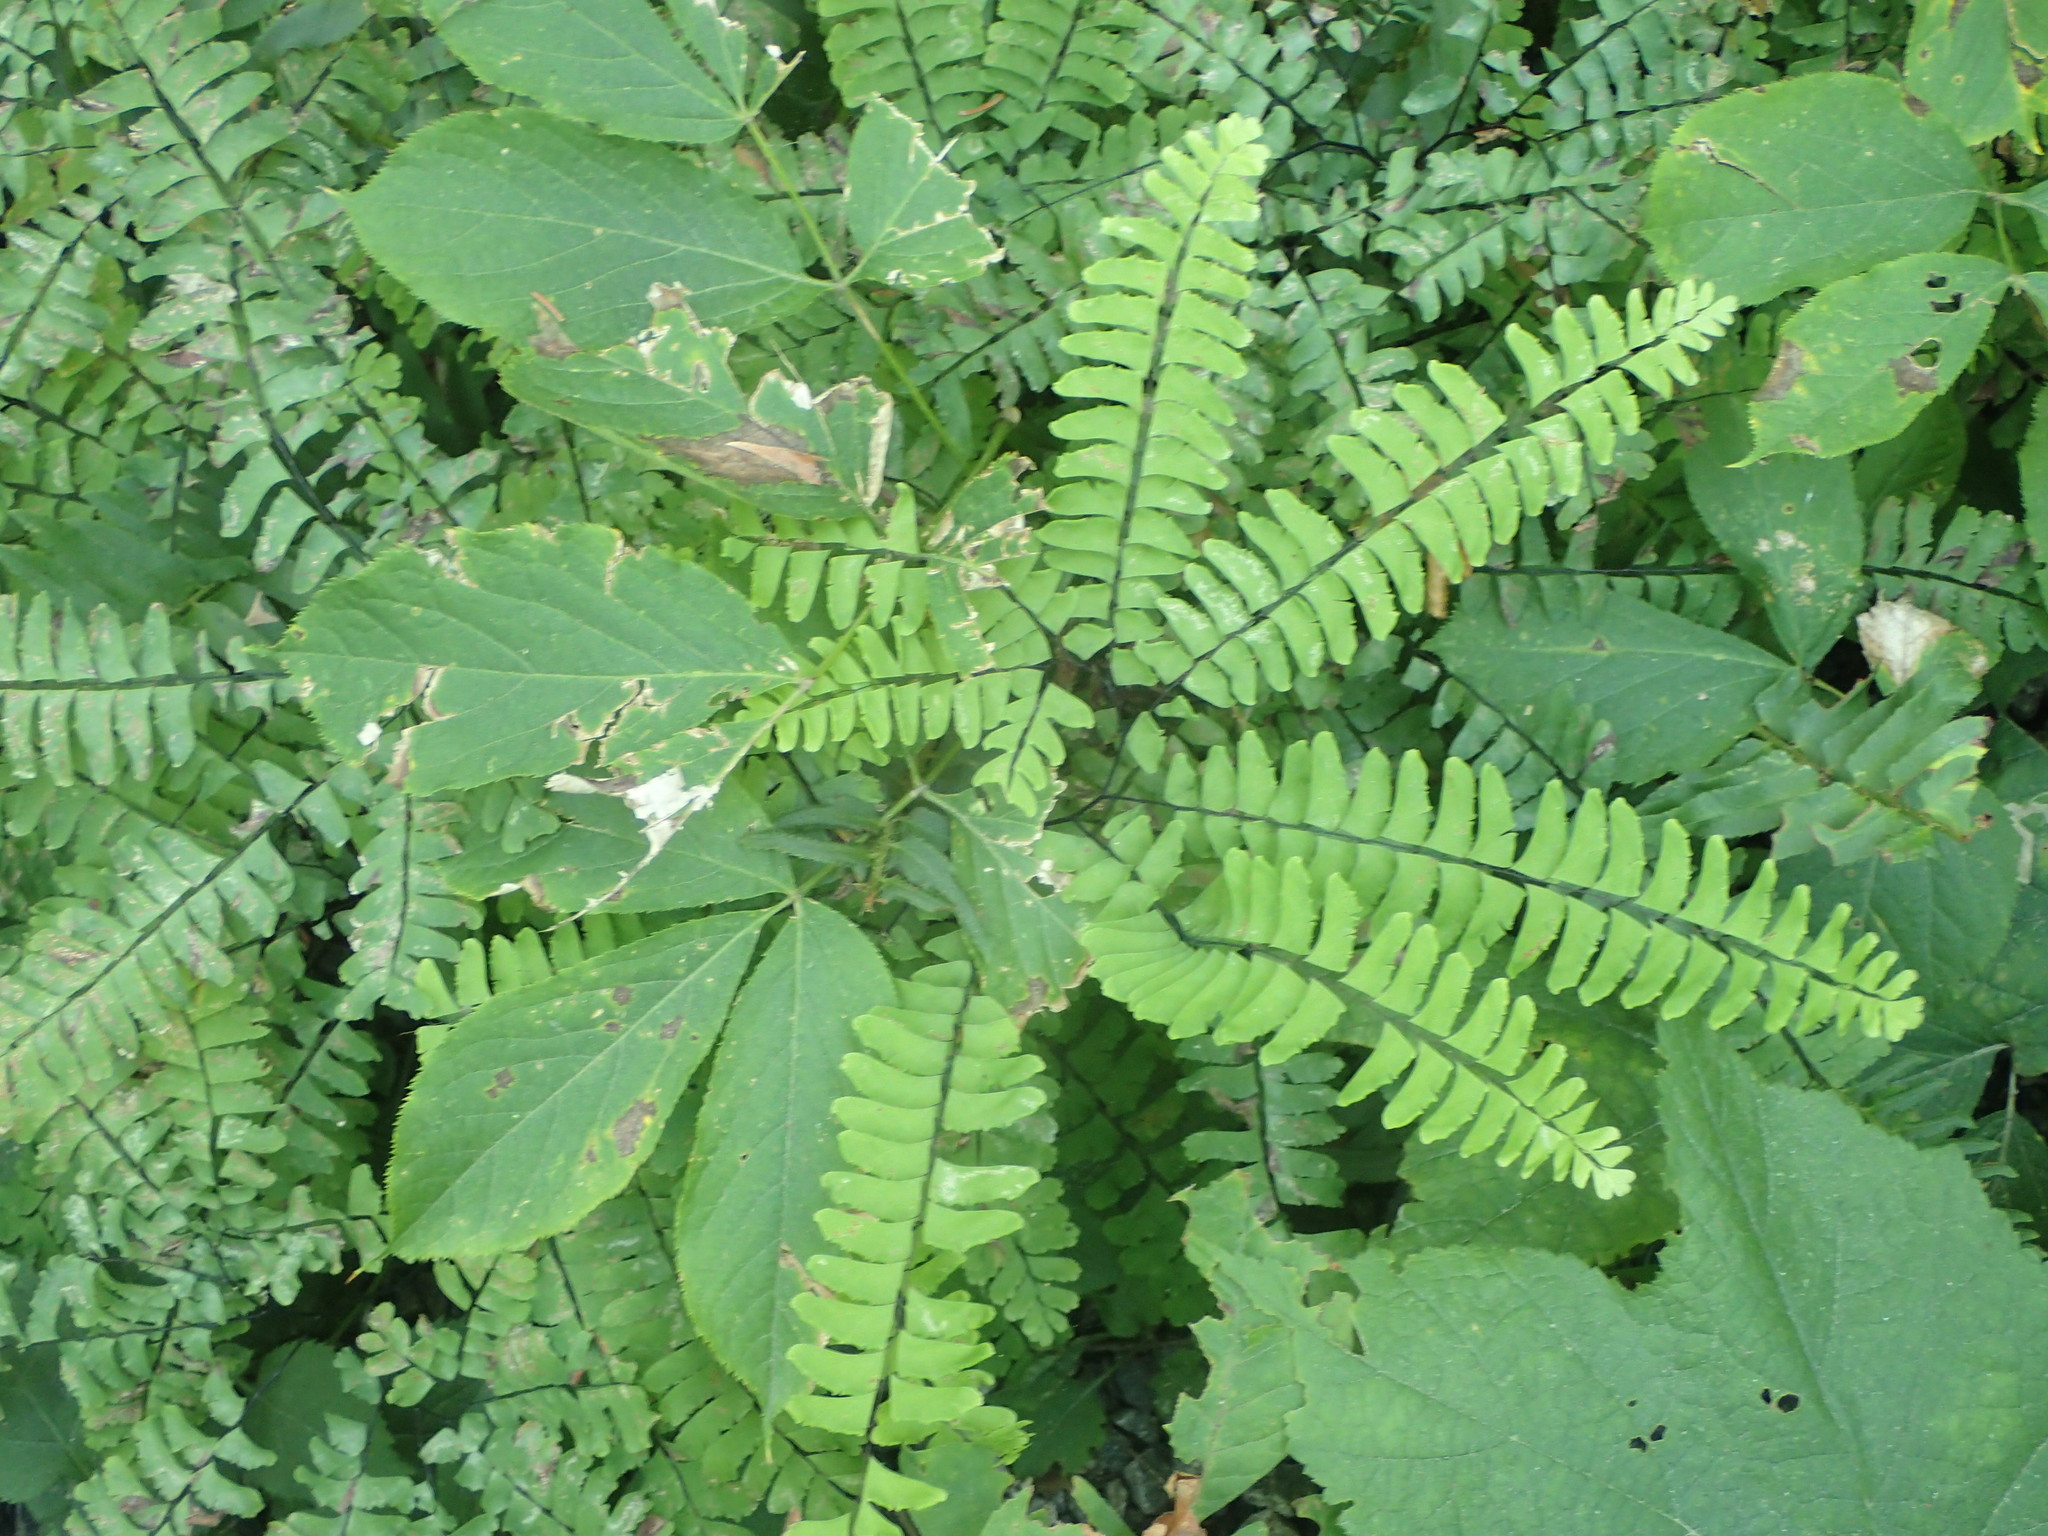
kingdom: Plantae
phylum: Tracheophyta
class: Polypodiopsida
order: Polypodiales
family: Pteridaceae
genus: Adiantum
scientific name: Adiantum pedatum
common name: Five-finger fern
